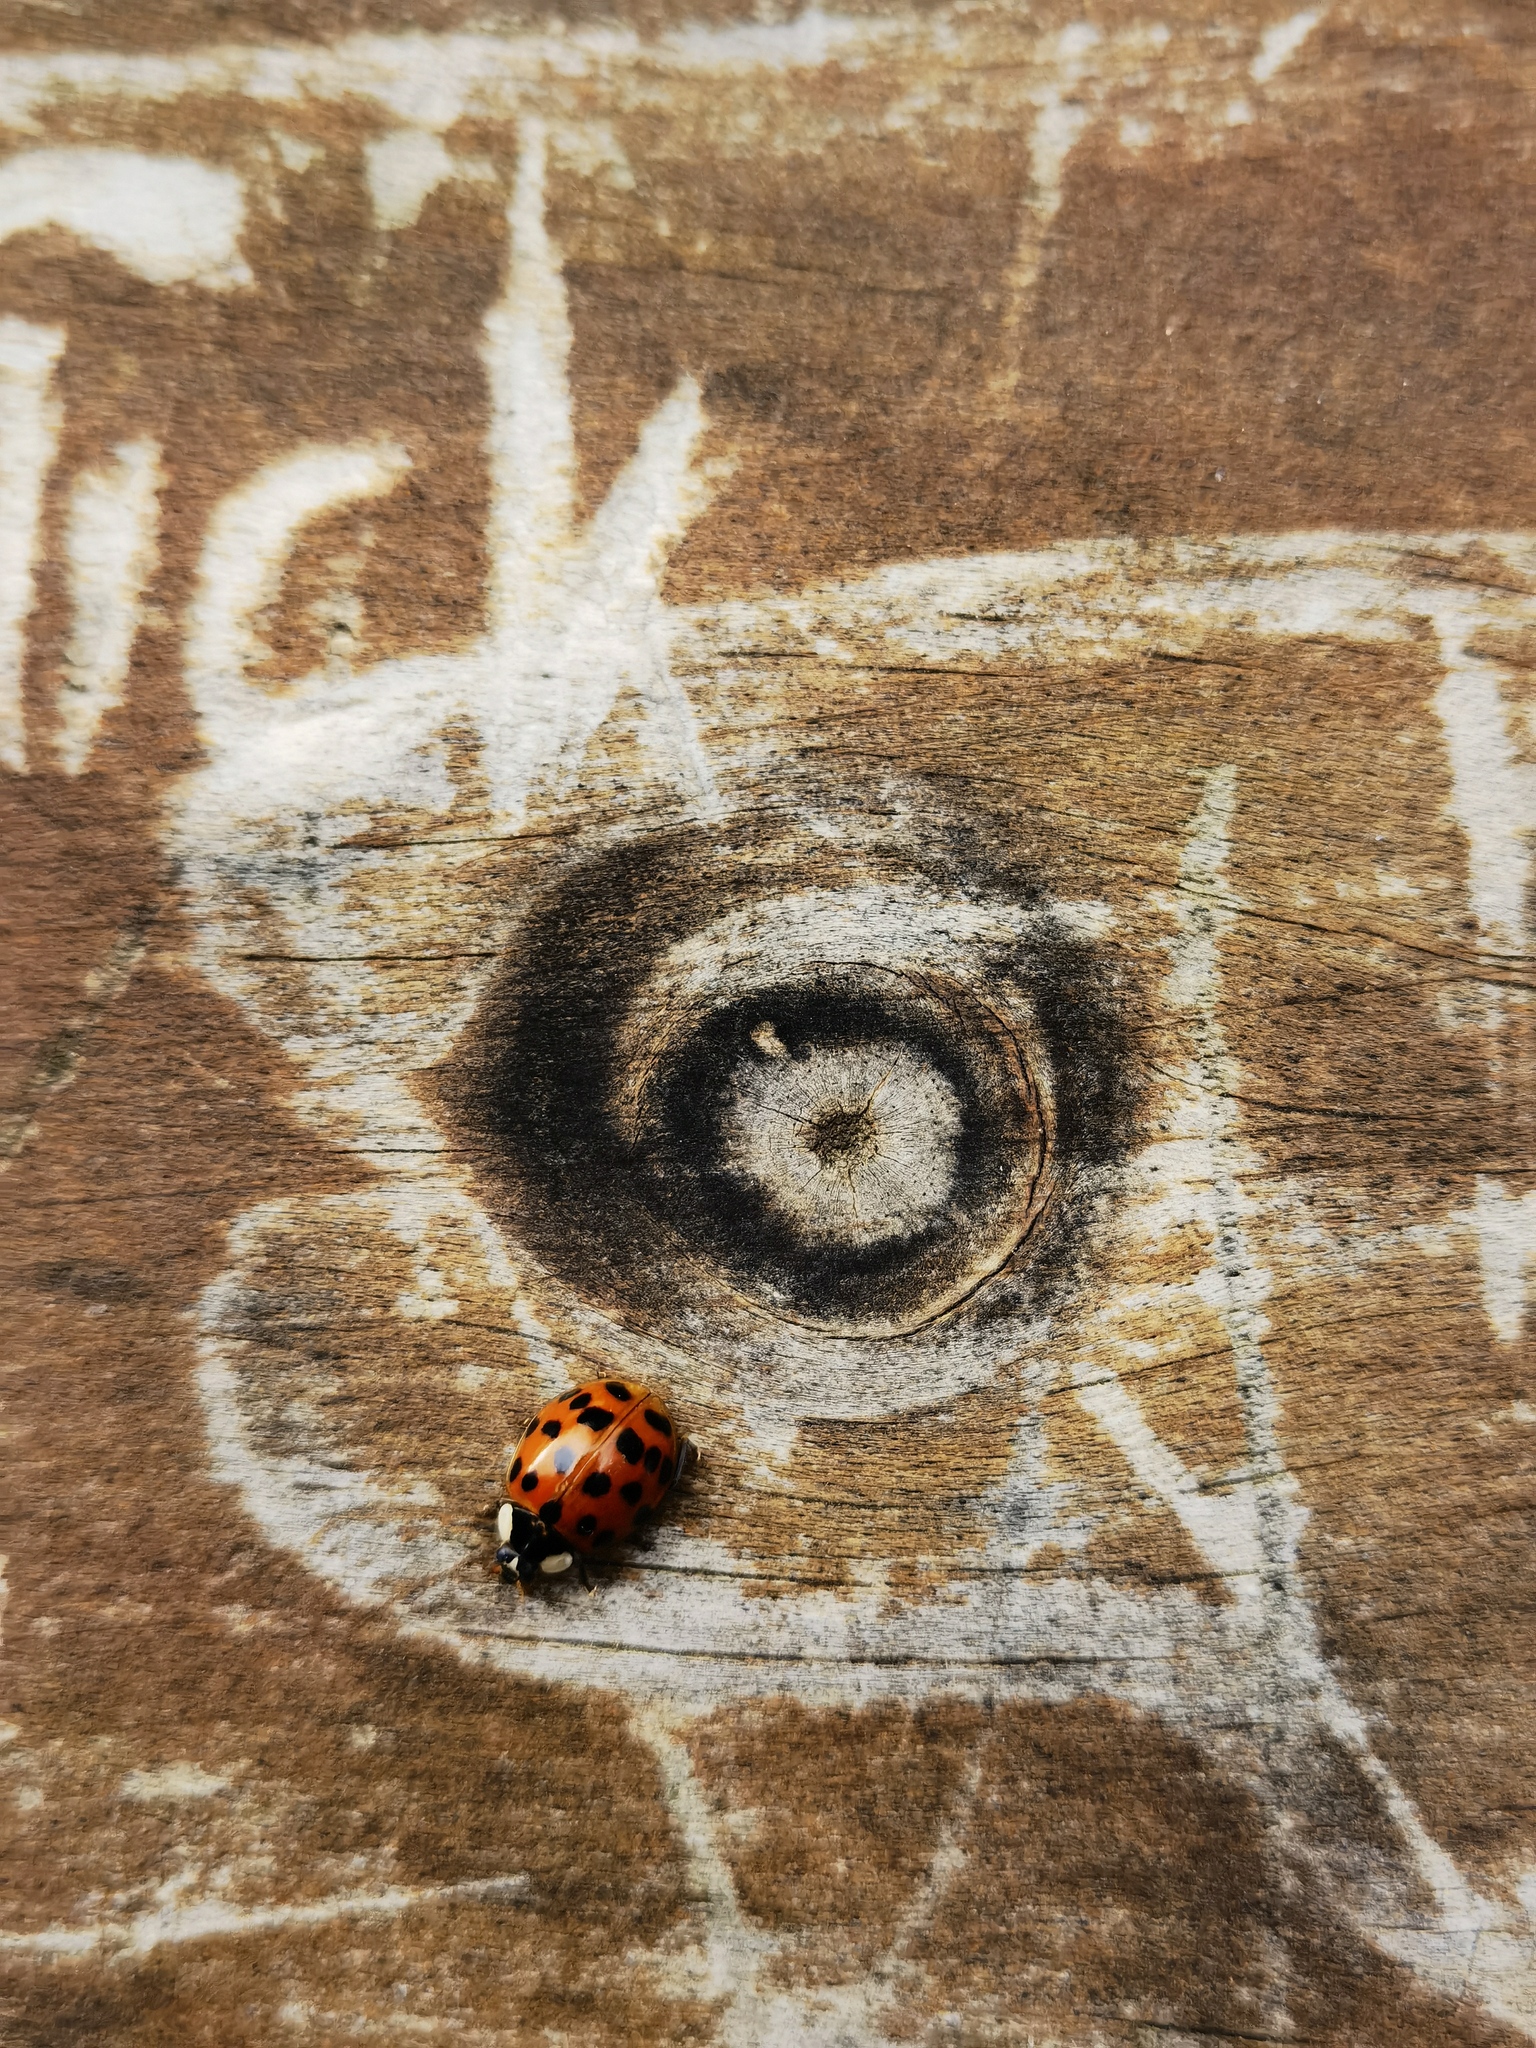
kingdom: Animalia
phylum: Arthropoda
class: Insecta
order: Coleoptera
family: Coccinellidae
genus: Harmonia
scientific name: Harmonia axyridis
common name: Harlequin ladybird
